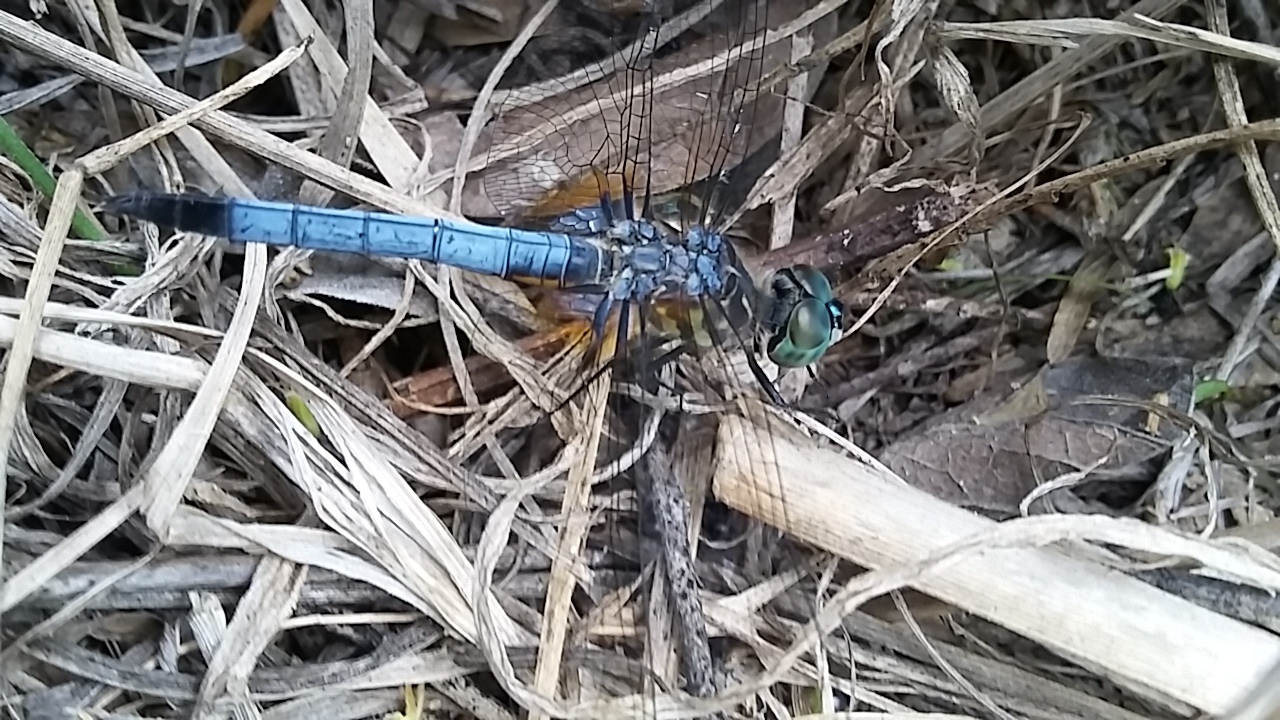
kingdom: Animalia
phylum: Arthropoda
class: Insecta
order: Odonata
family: Libellulidae
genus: Pachydiplax
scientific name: Pachydiplax longipennis
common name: Blue dasher
